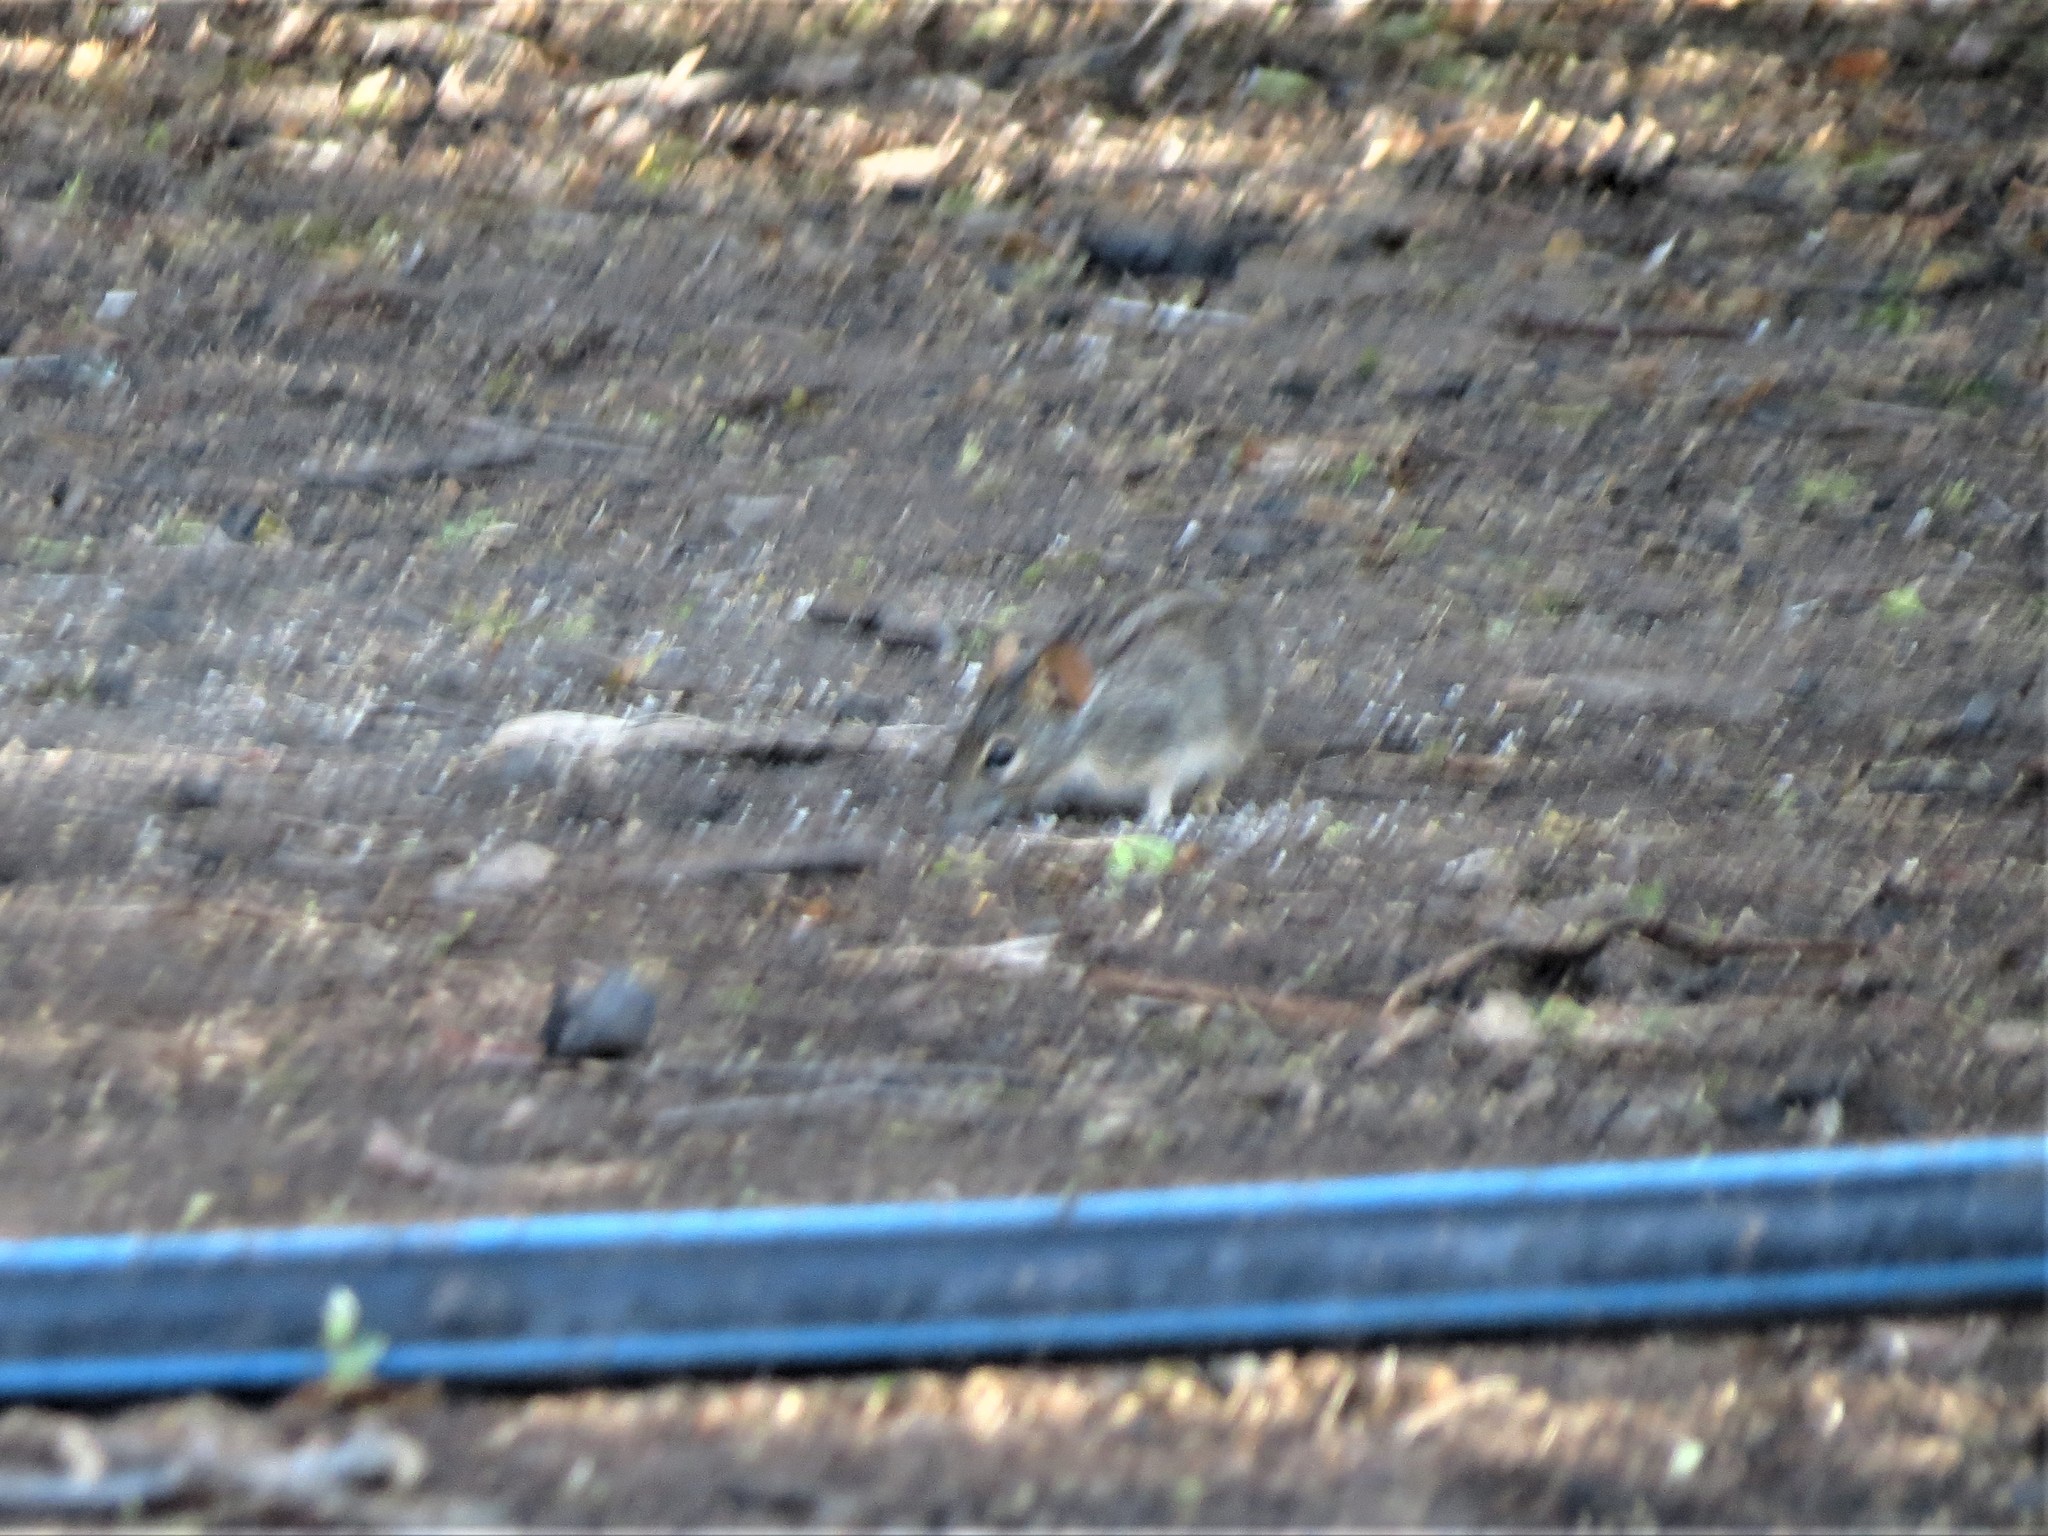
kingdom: Animalia
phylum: Chordata
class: Mammalia
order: Rodentia
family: Muridae
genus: Rhabdomys
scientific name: Rhabdomys pumilio
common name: Xeric four-striped grass rat
